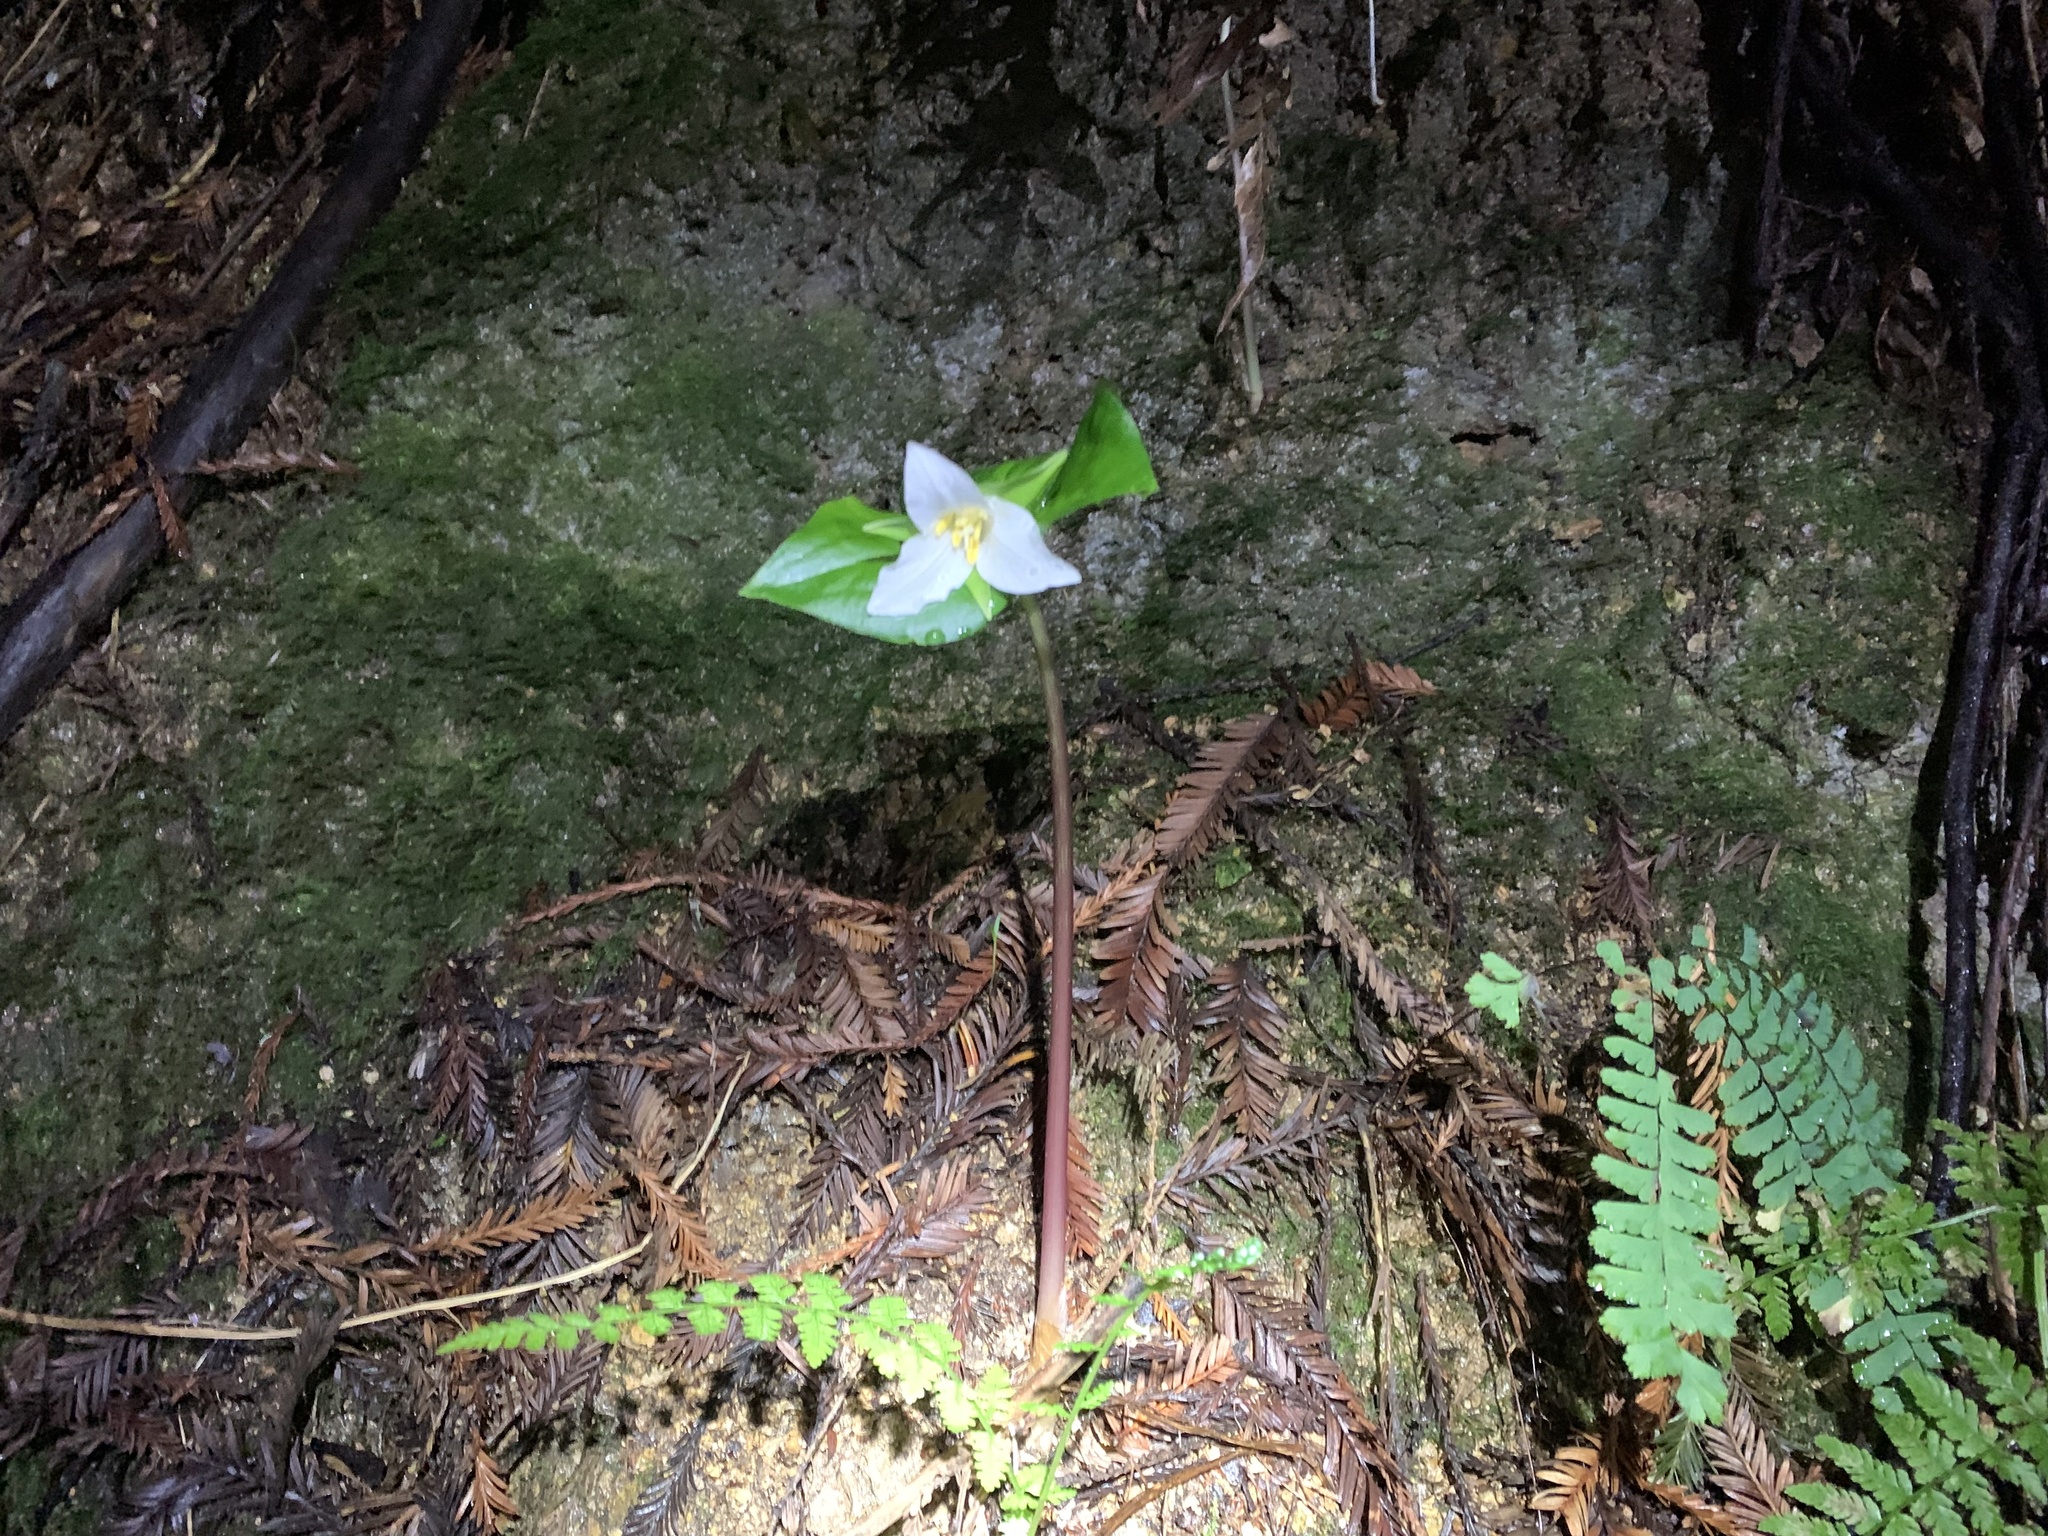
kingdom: Plantae
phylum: Tracheophyta
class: Liliopsida
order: Liliales
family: Melanthiaceae
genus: Trillium
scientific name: Trillium ovatum
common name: Pacific trillium
